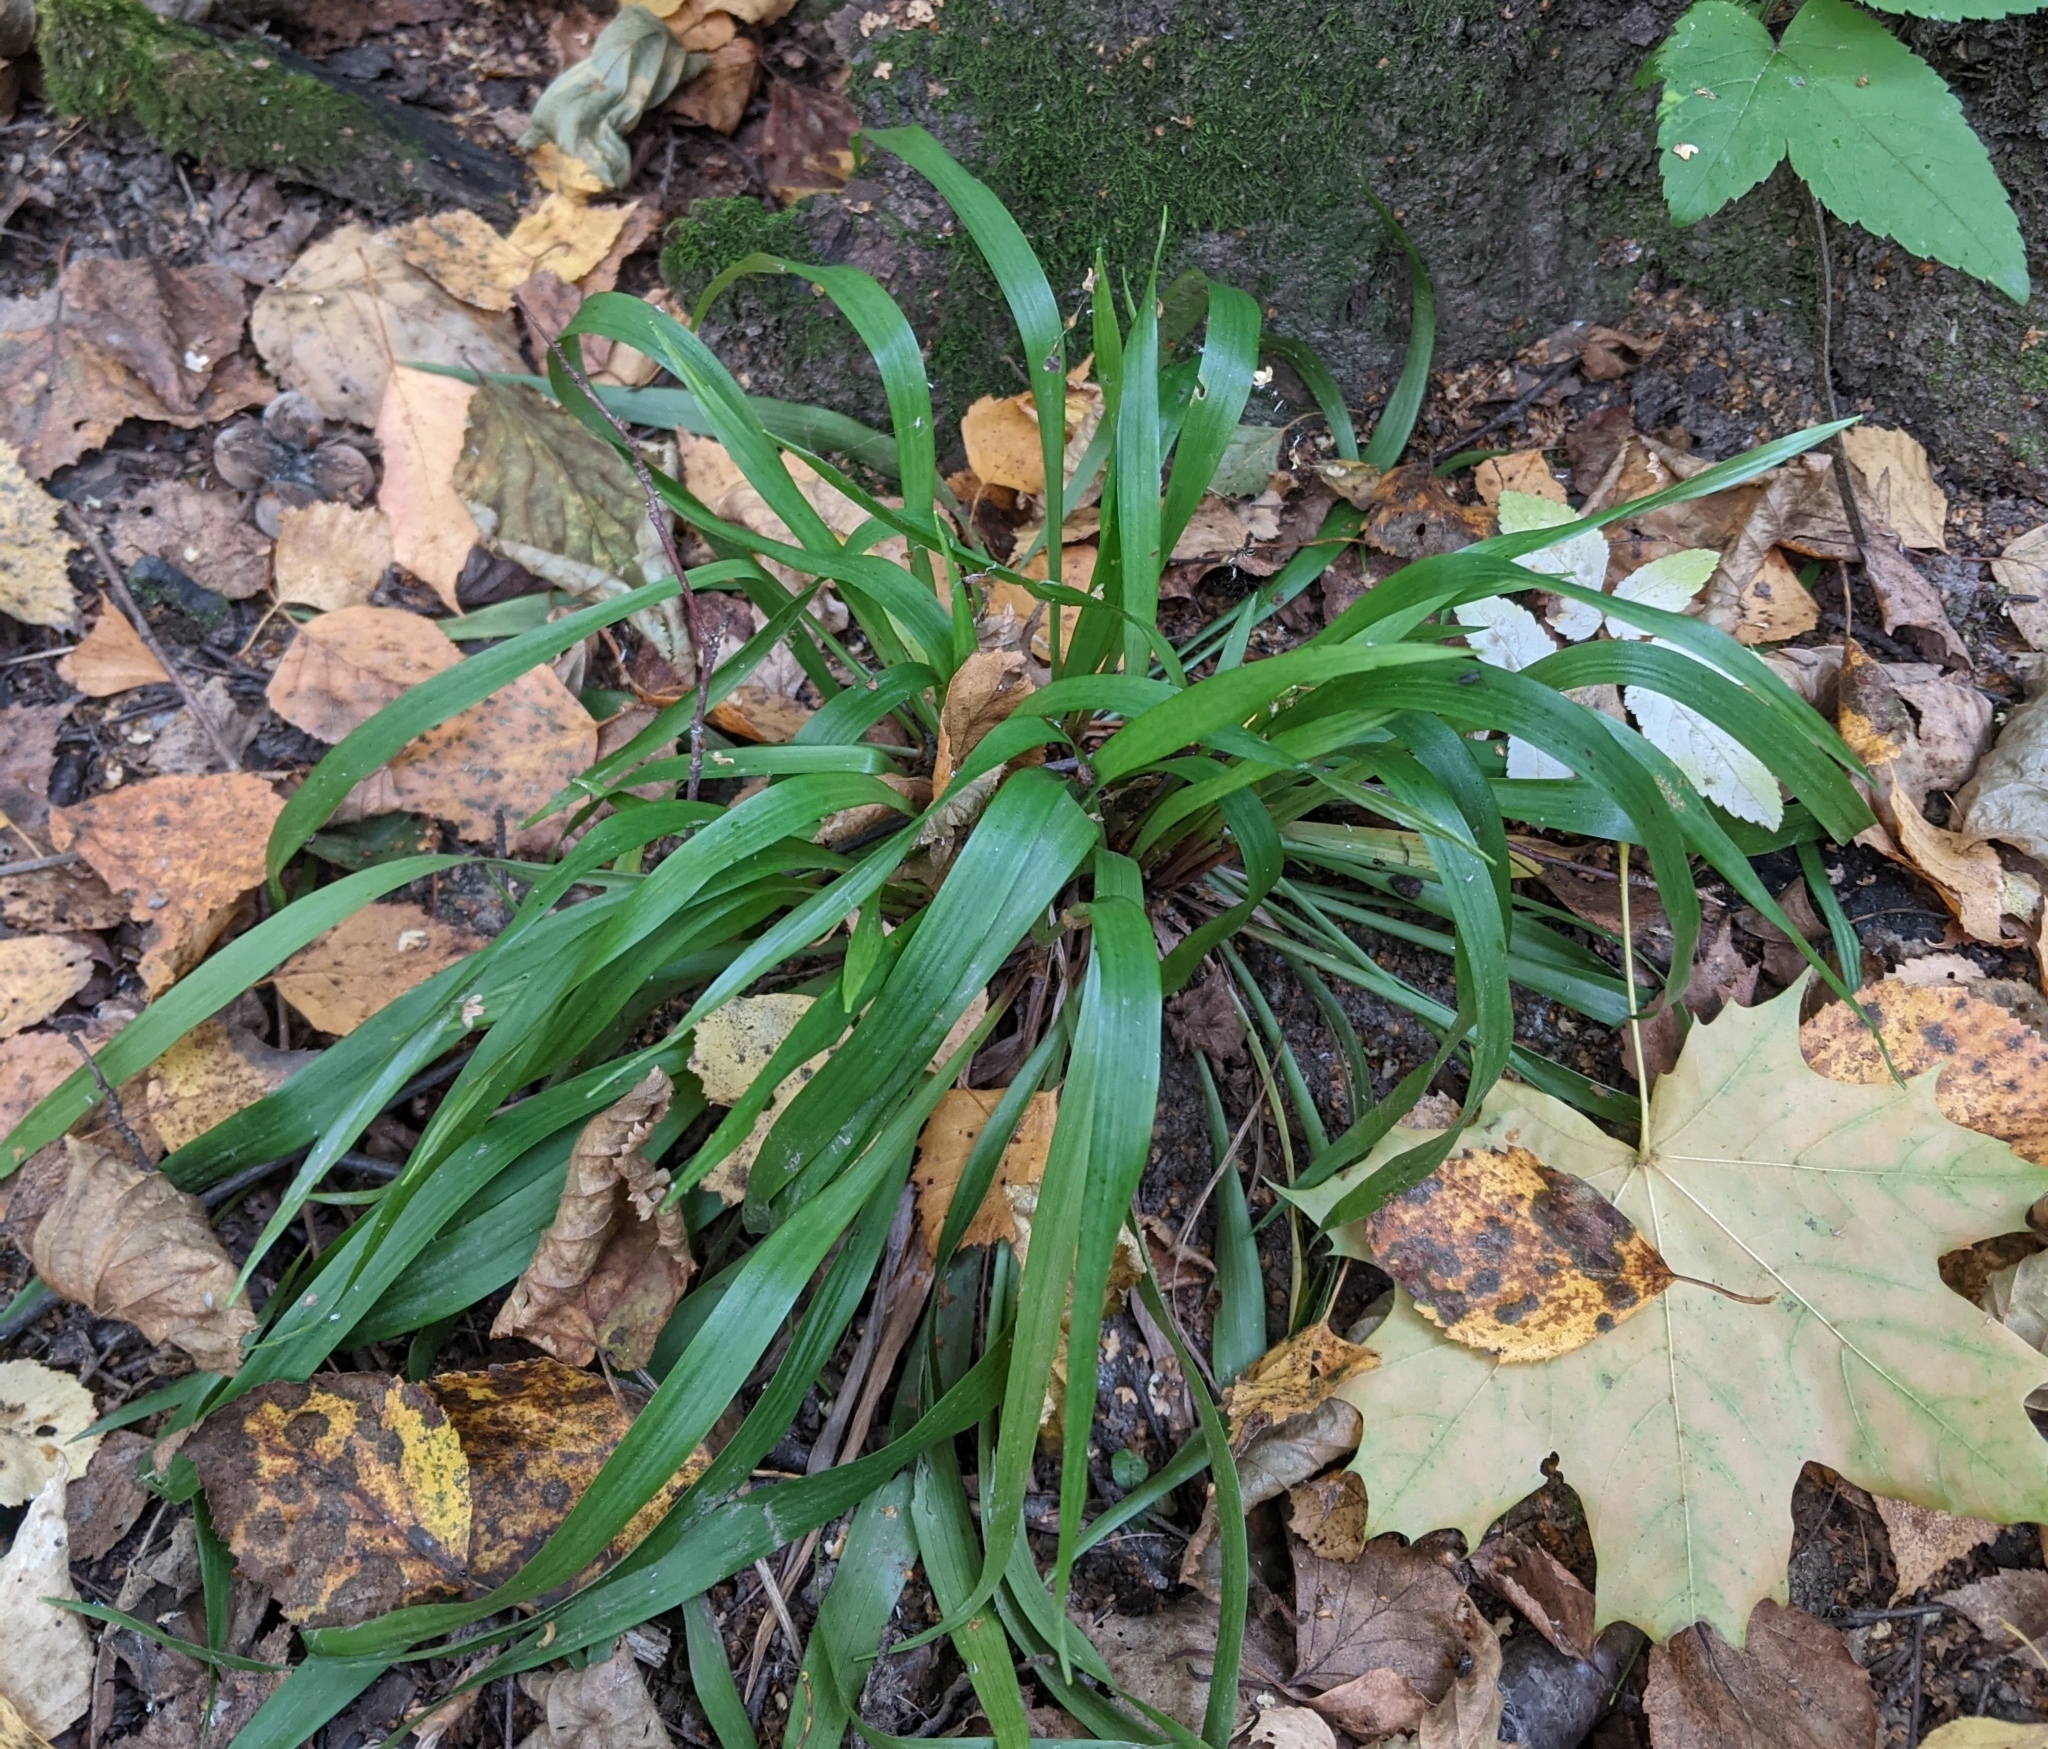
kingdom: Plantae
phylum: Tracheophyta
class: Liliopsida
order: Poales
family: Juncaceae
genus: Luzula
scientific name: Luzula pilosa
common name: Hairy wood-rush
